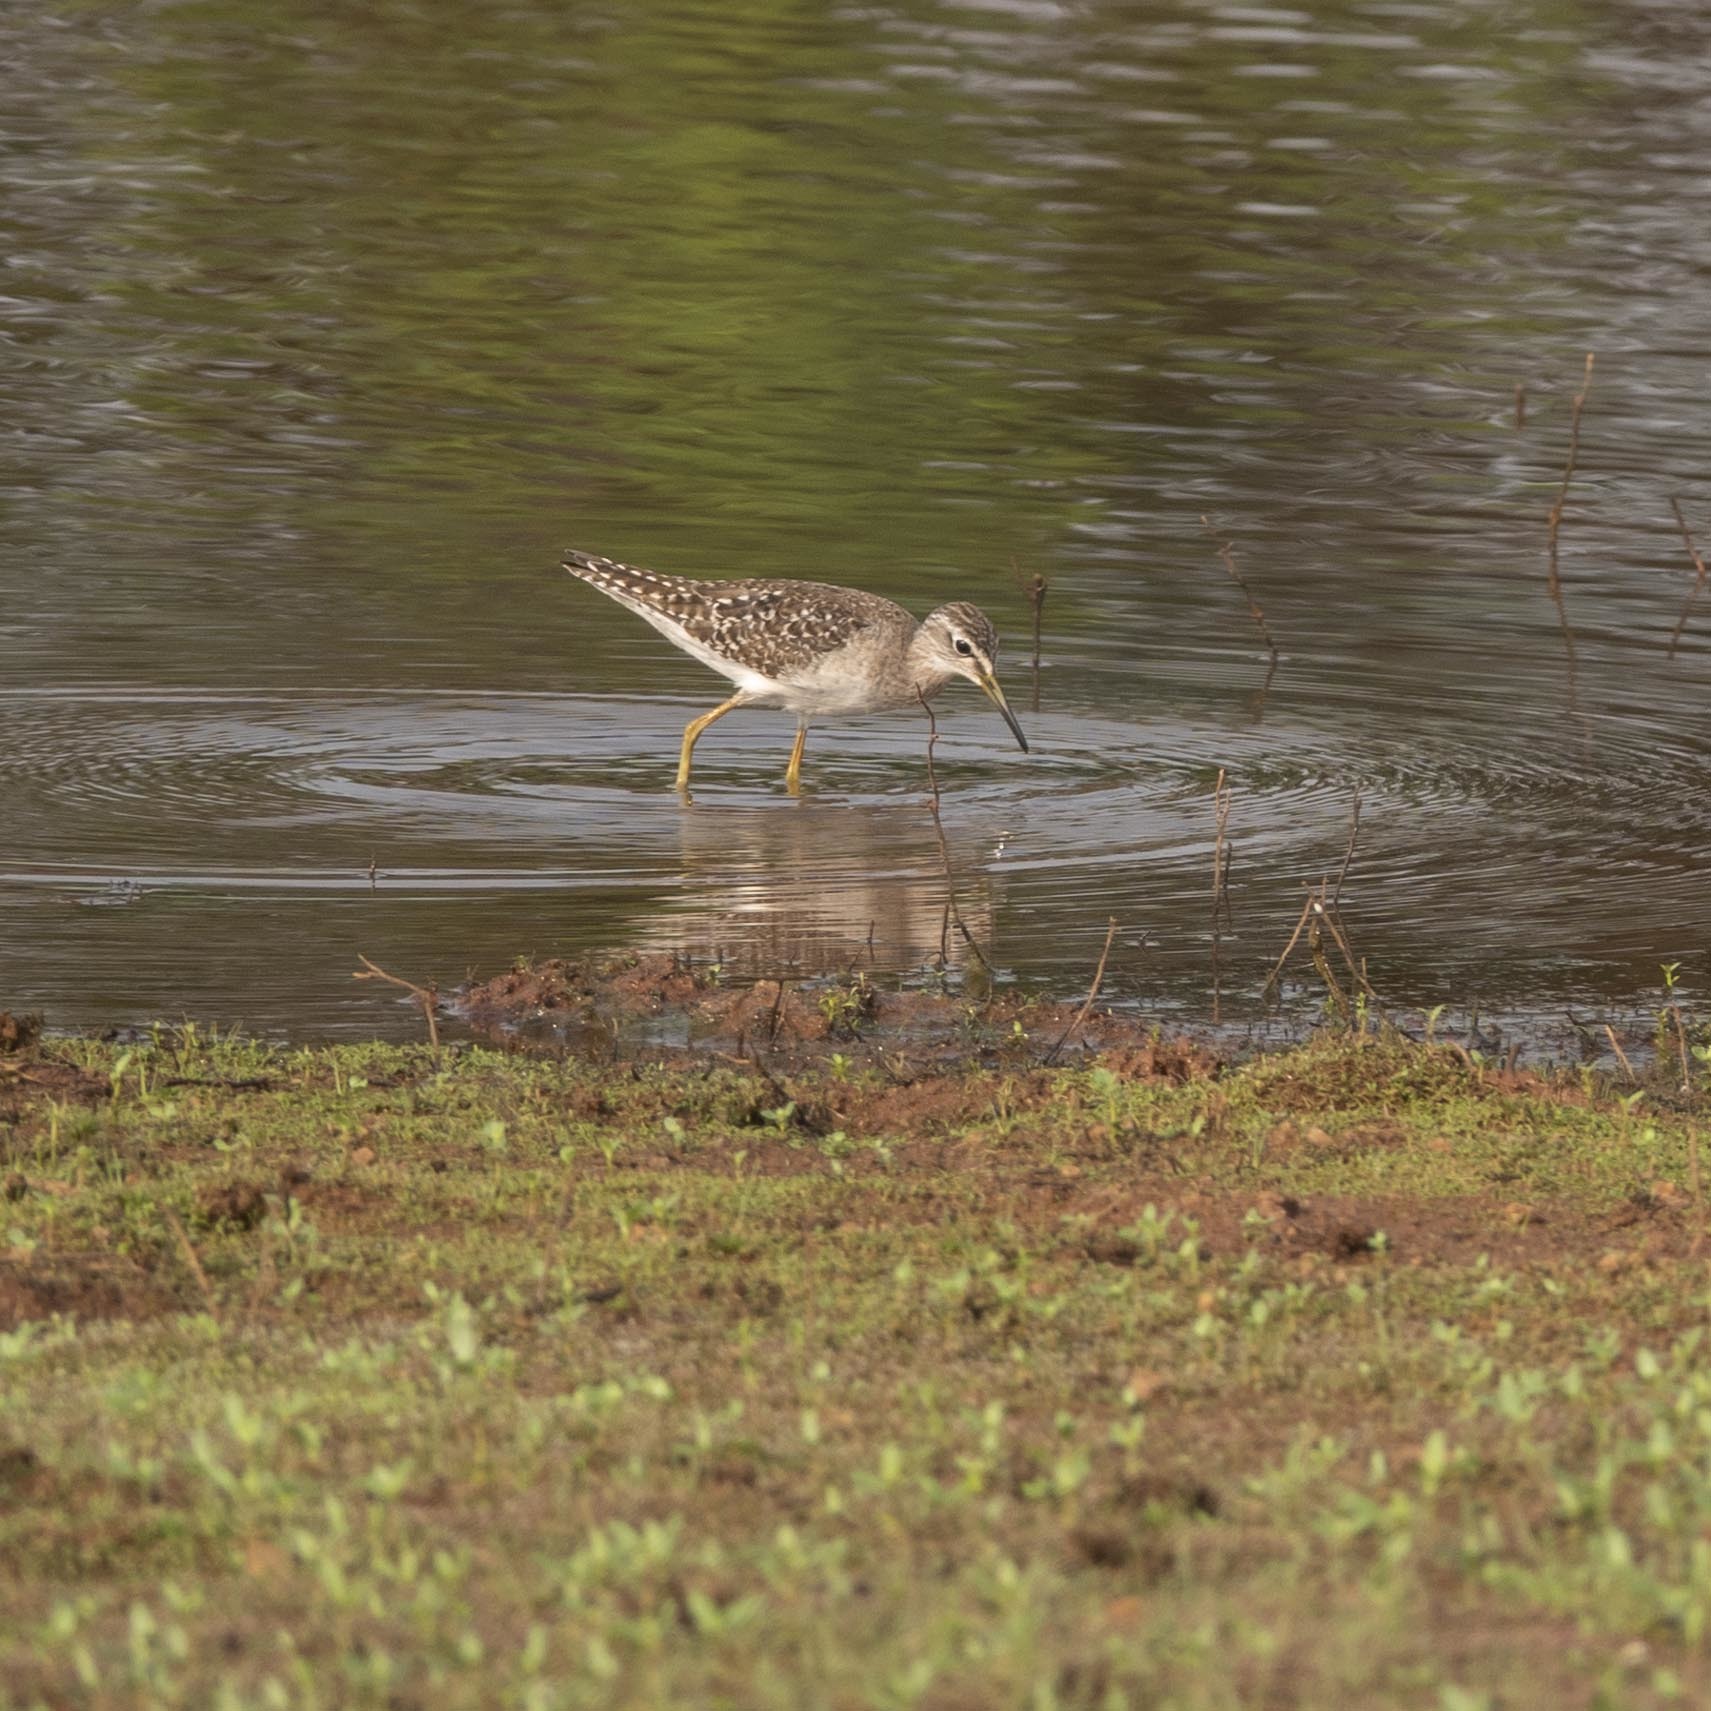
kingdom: Animalia
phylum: Chordata
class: Aves
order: Charadriiformes
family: Scolopacidae
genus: Tringa
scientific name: Tringa glareola
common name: Wood sandpiper
